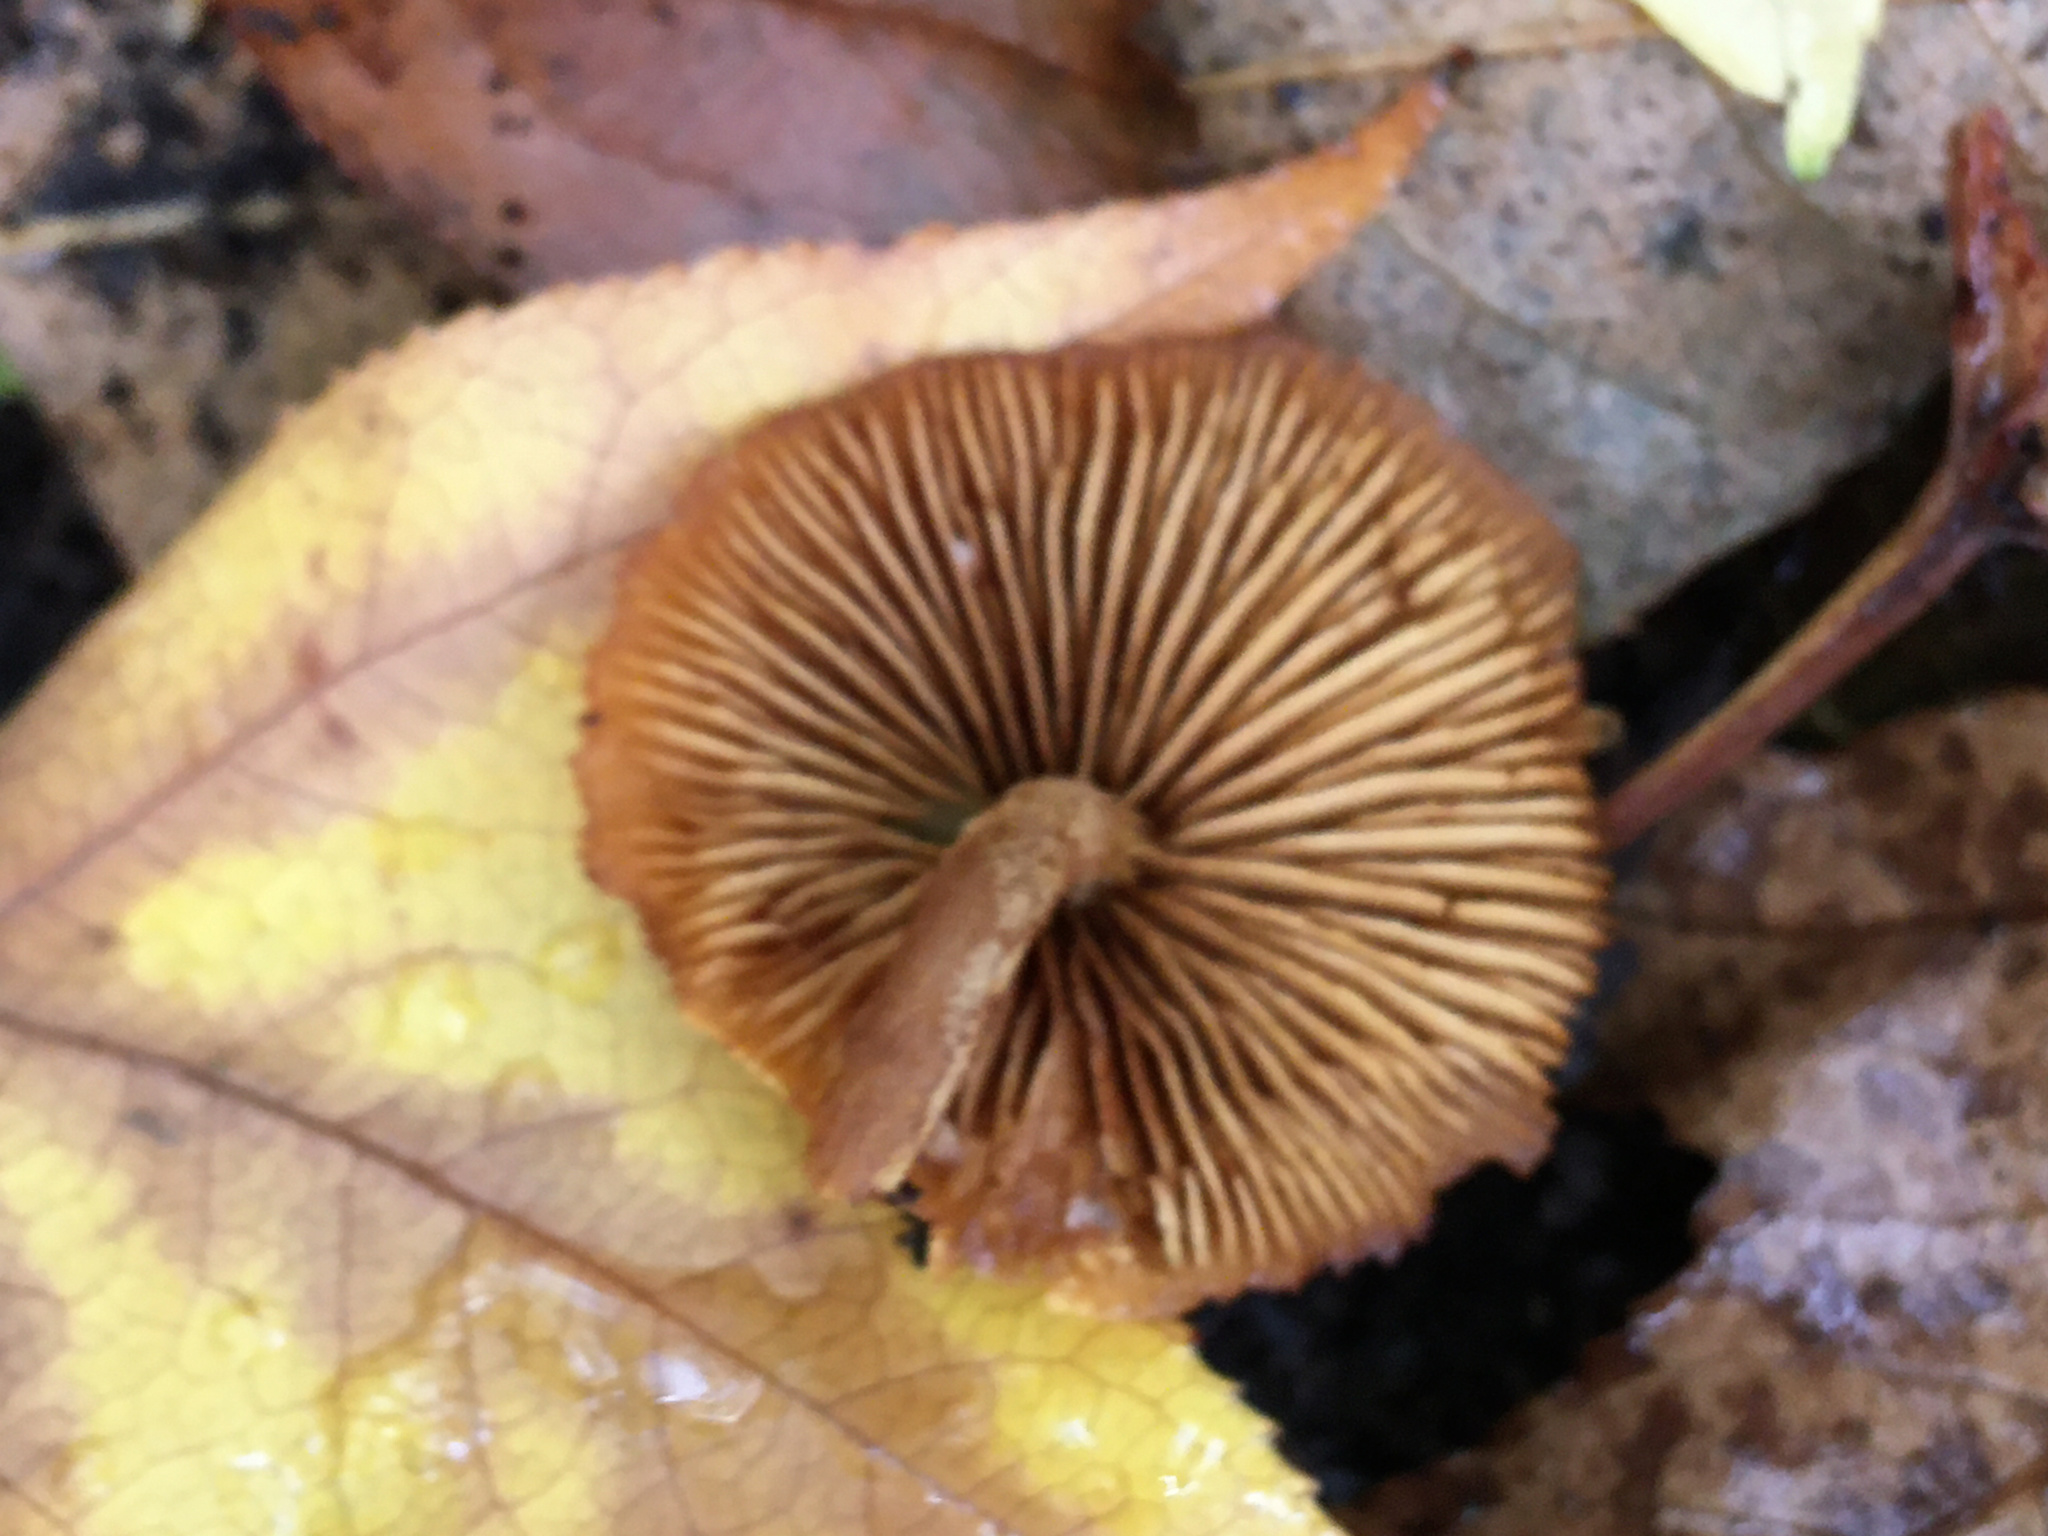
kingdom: Fungi
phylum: Basidiomycota
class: Agaricomycetes
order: Agaricales
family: Strophariaceae
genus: Pholiota
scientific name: Pholiota granulosa
